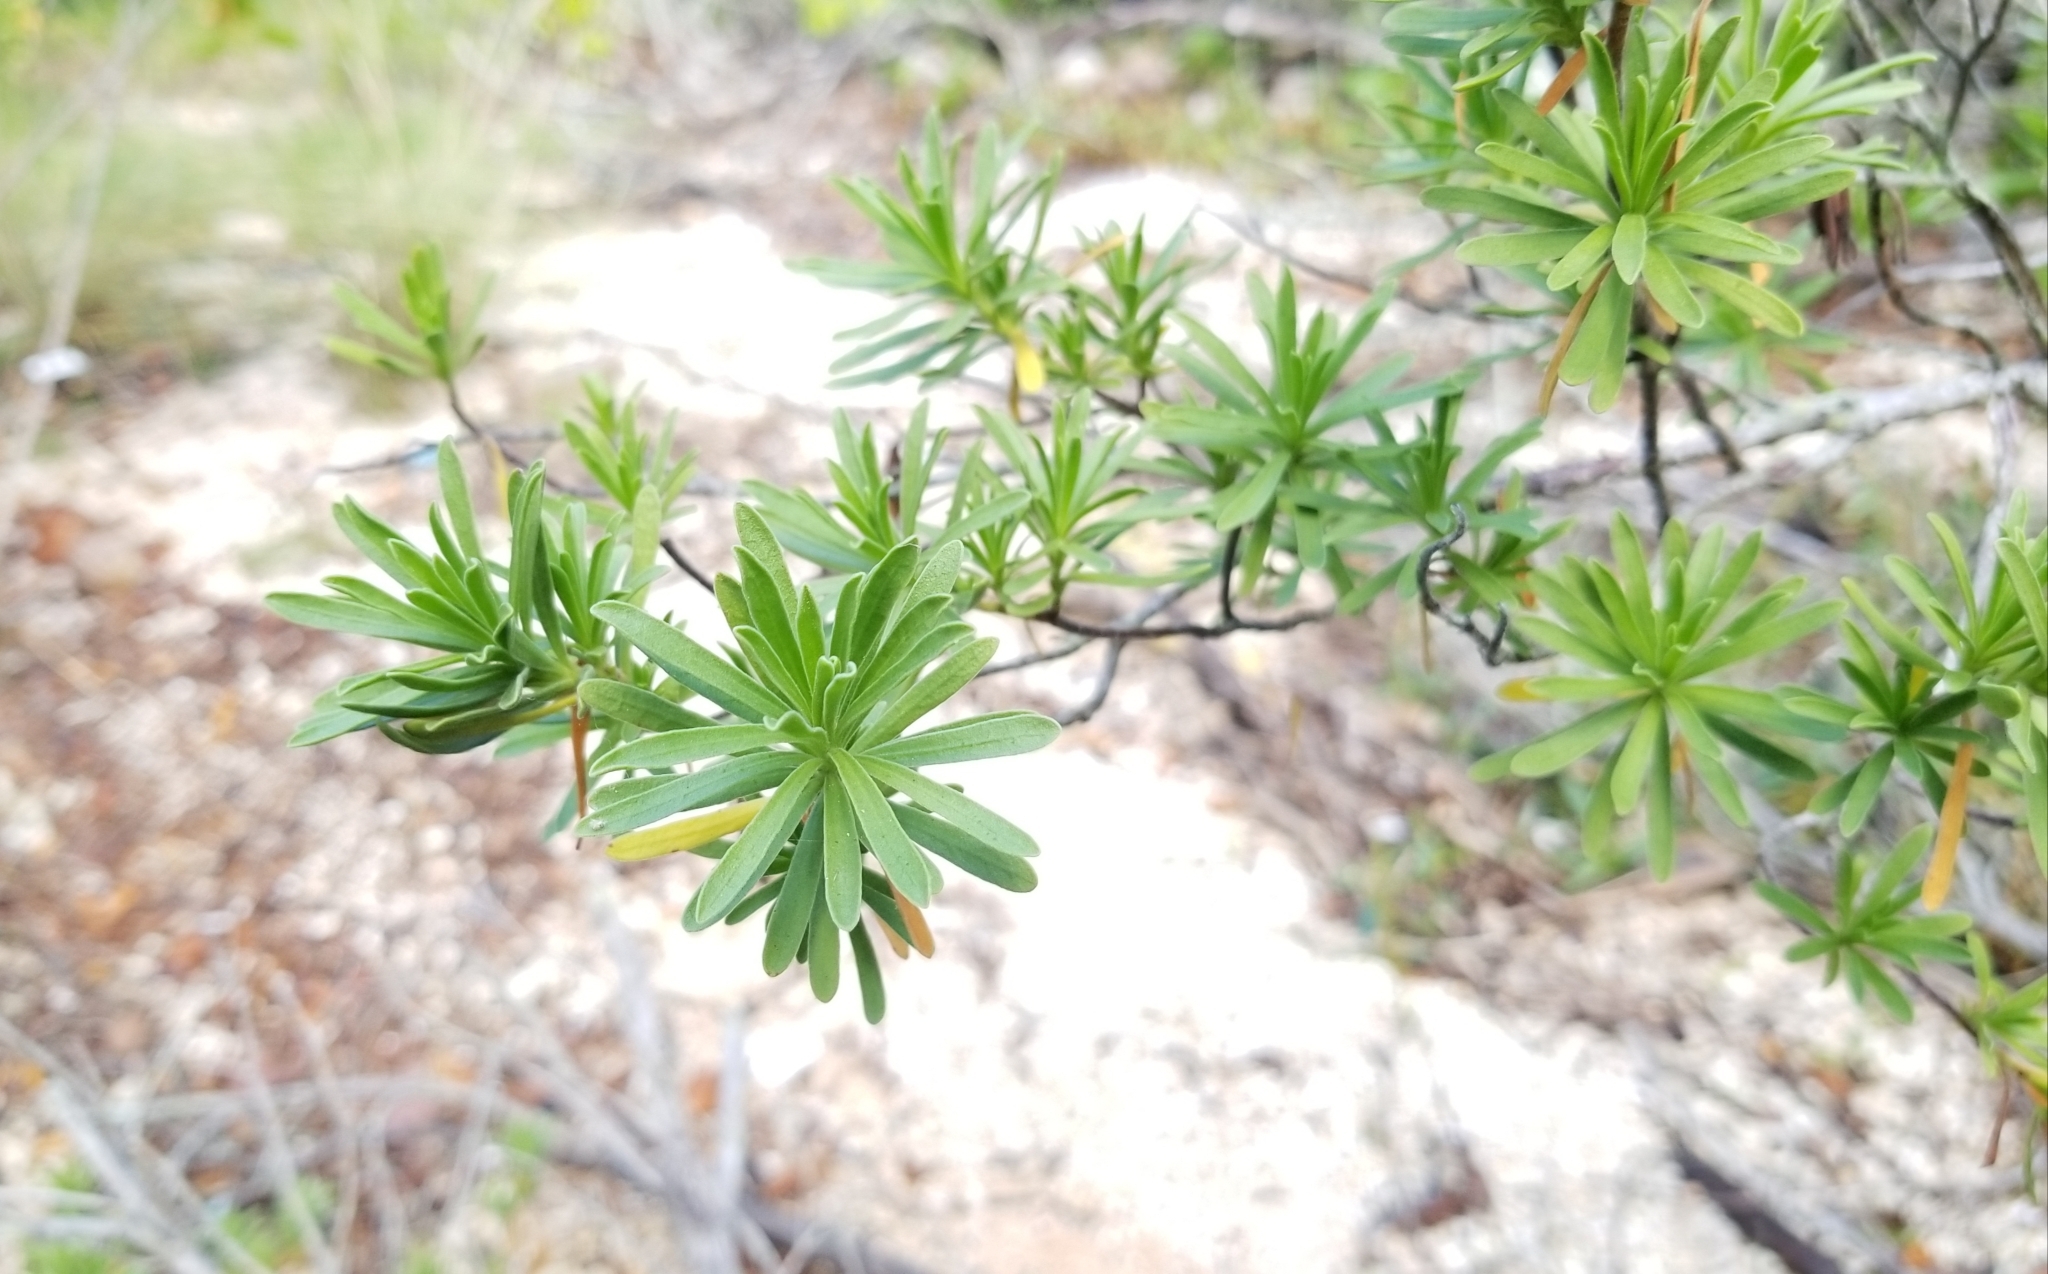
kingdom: Plantae
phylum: Tracheophyta
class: Magnoliopsida
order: Fabales
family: Surianaceae
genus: Suriana
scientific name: Suriana maritima
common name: Bay-cedar
